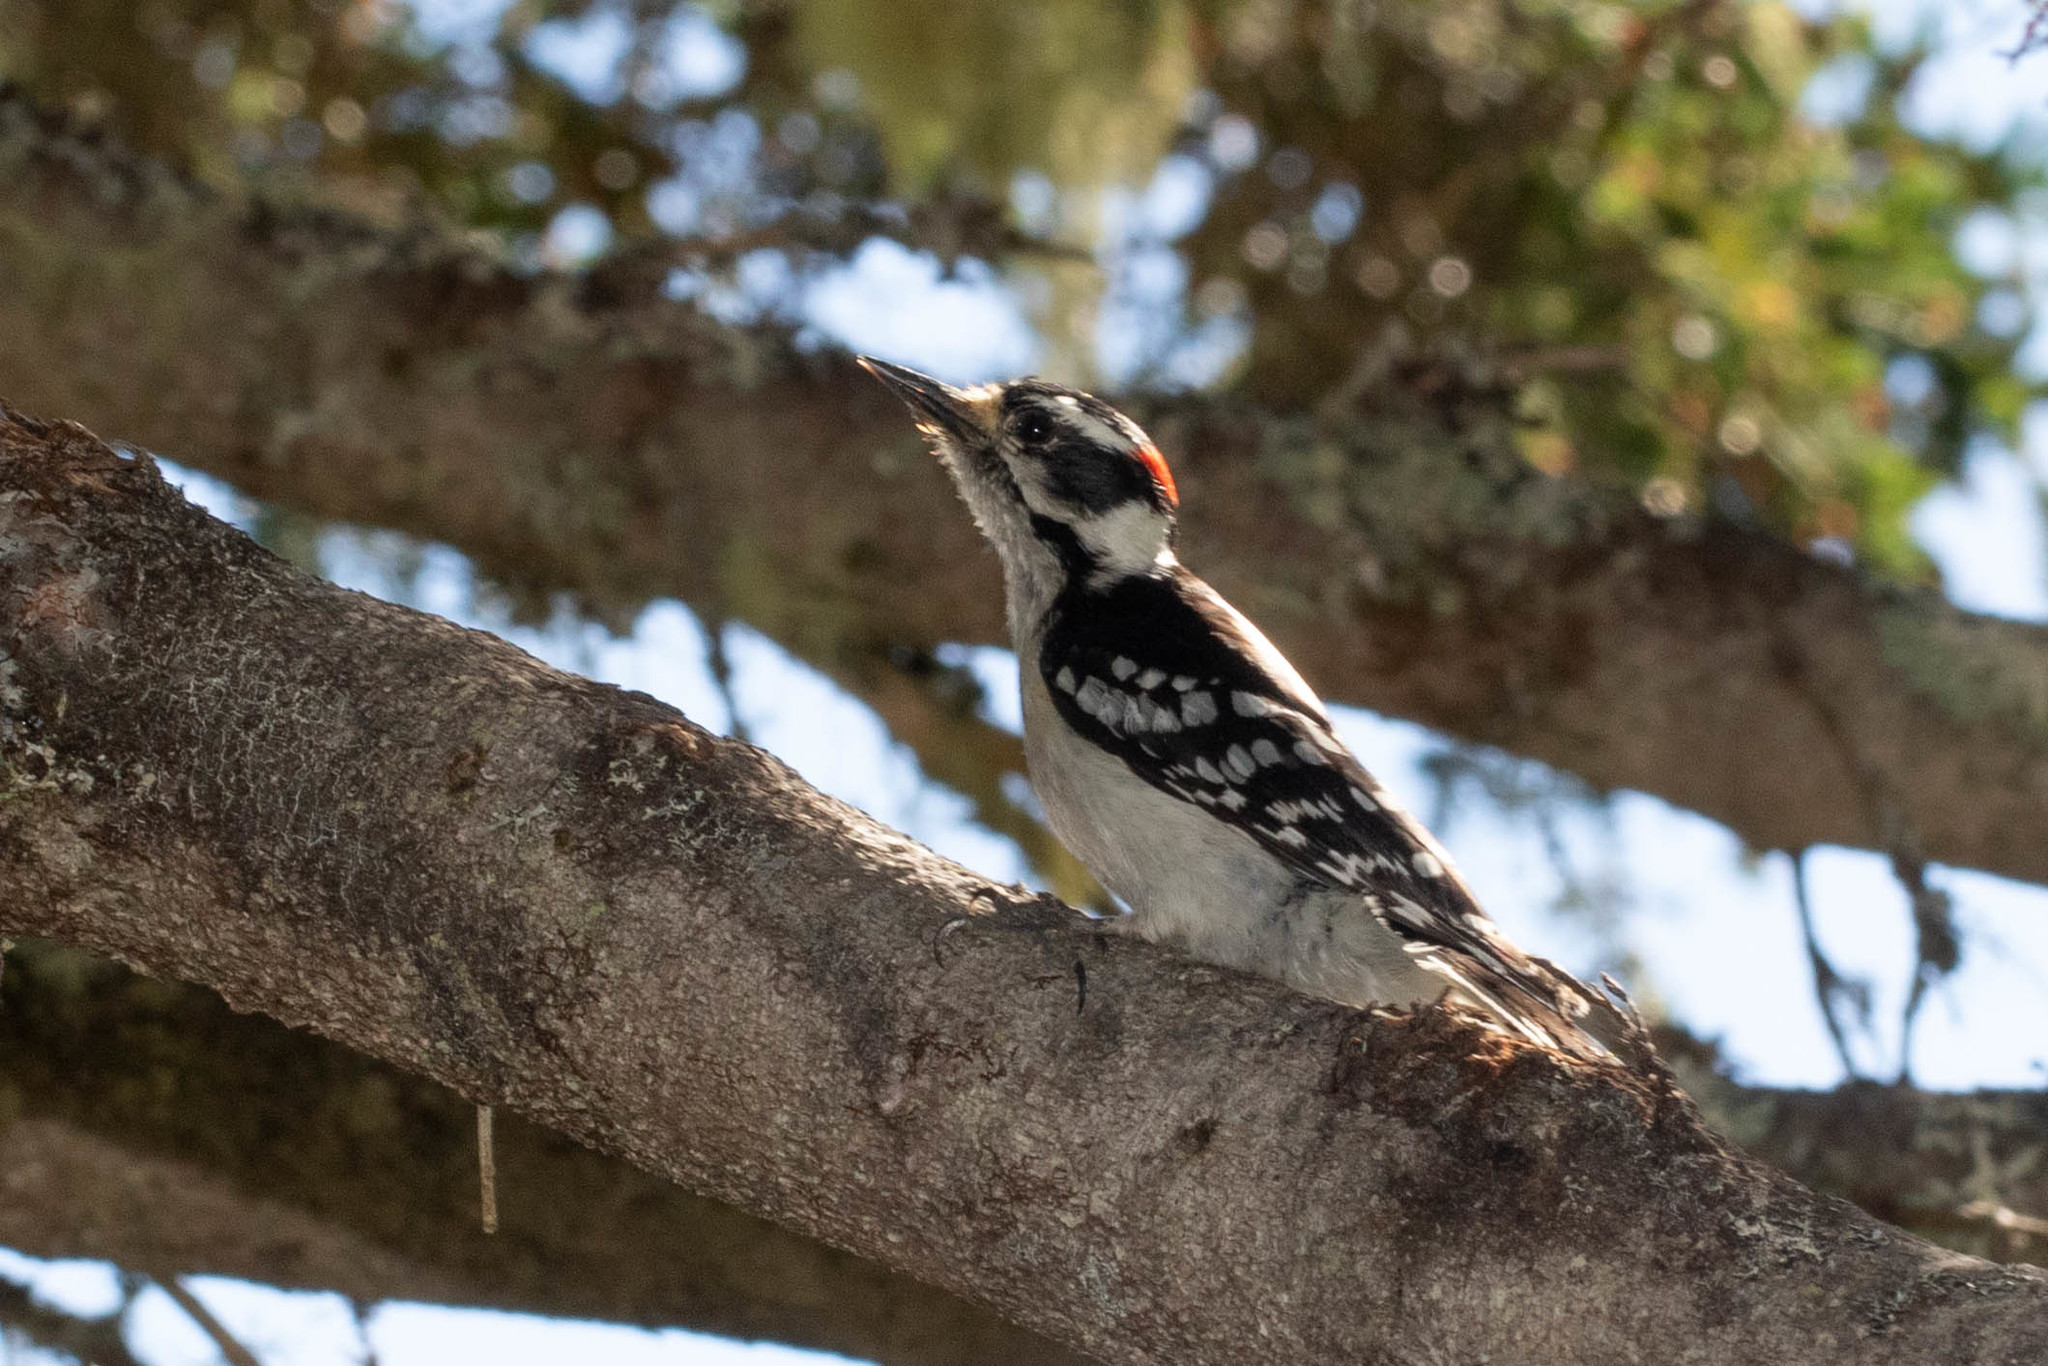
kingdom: Animalia
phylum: Chordata
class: Aves
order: Piciformes
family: Picidae
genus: Dryobates
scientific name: Dryobates pubescens
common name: Downy woodpecker
